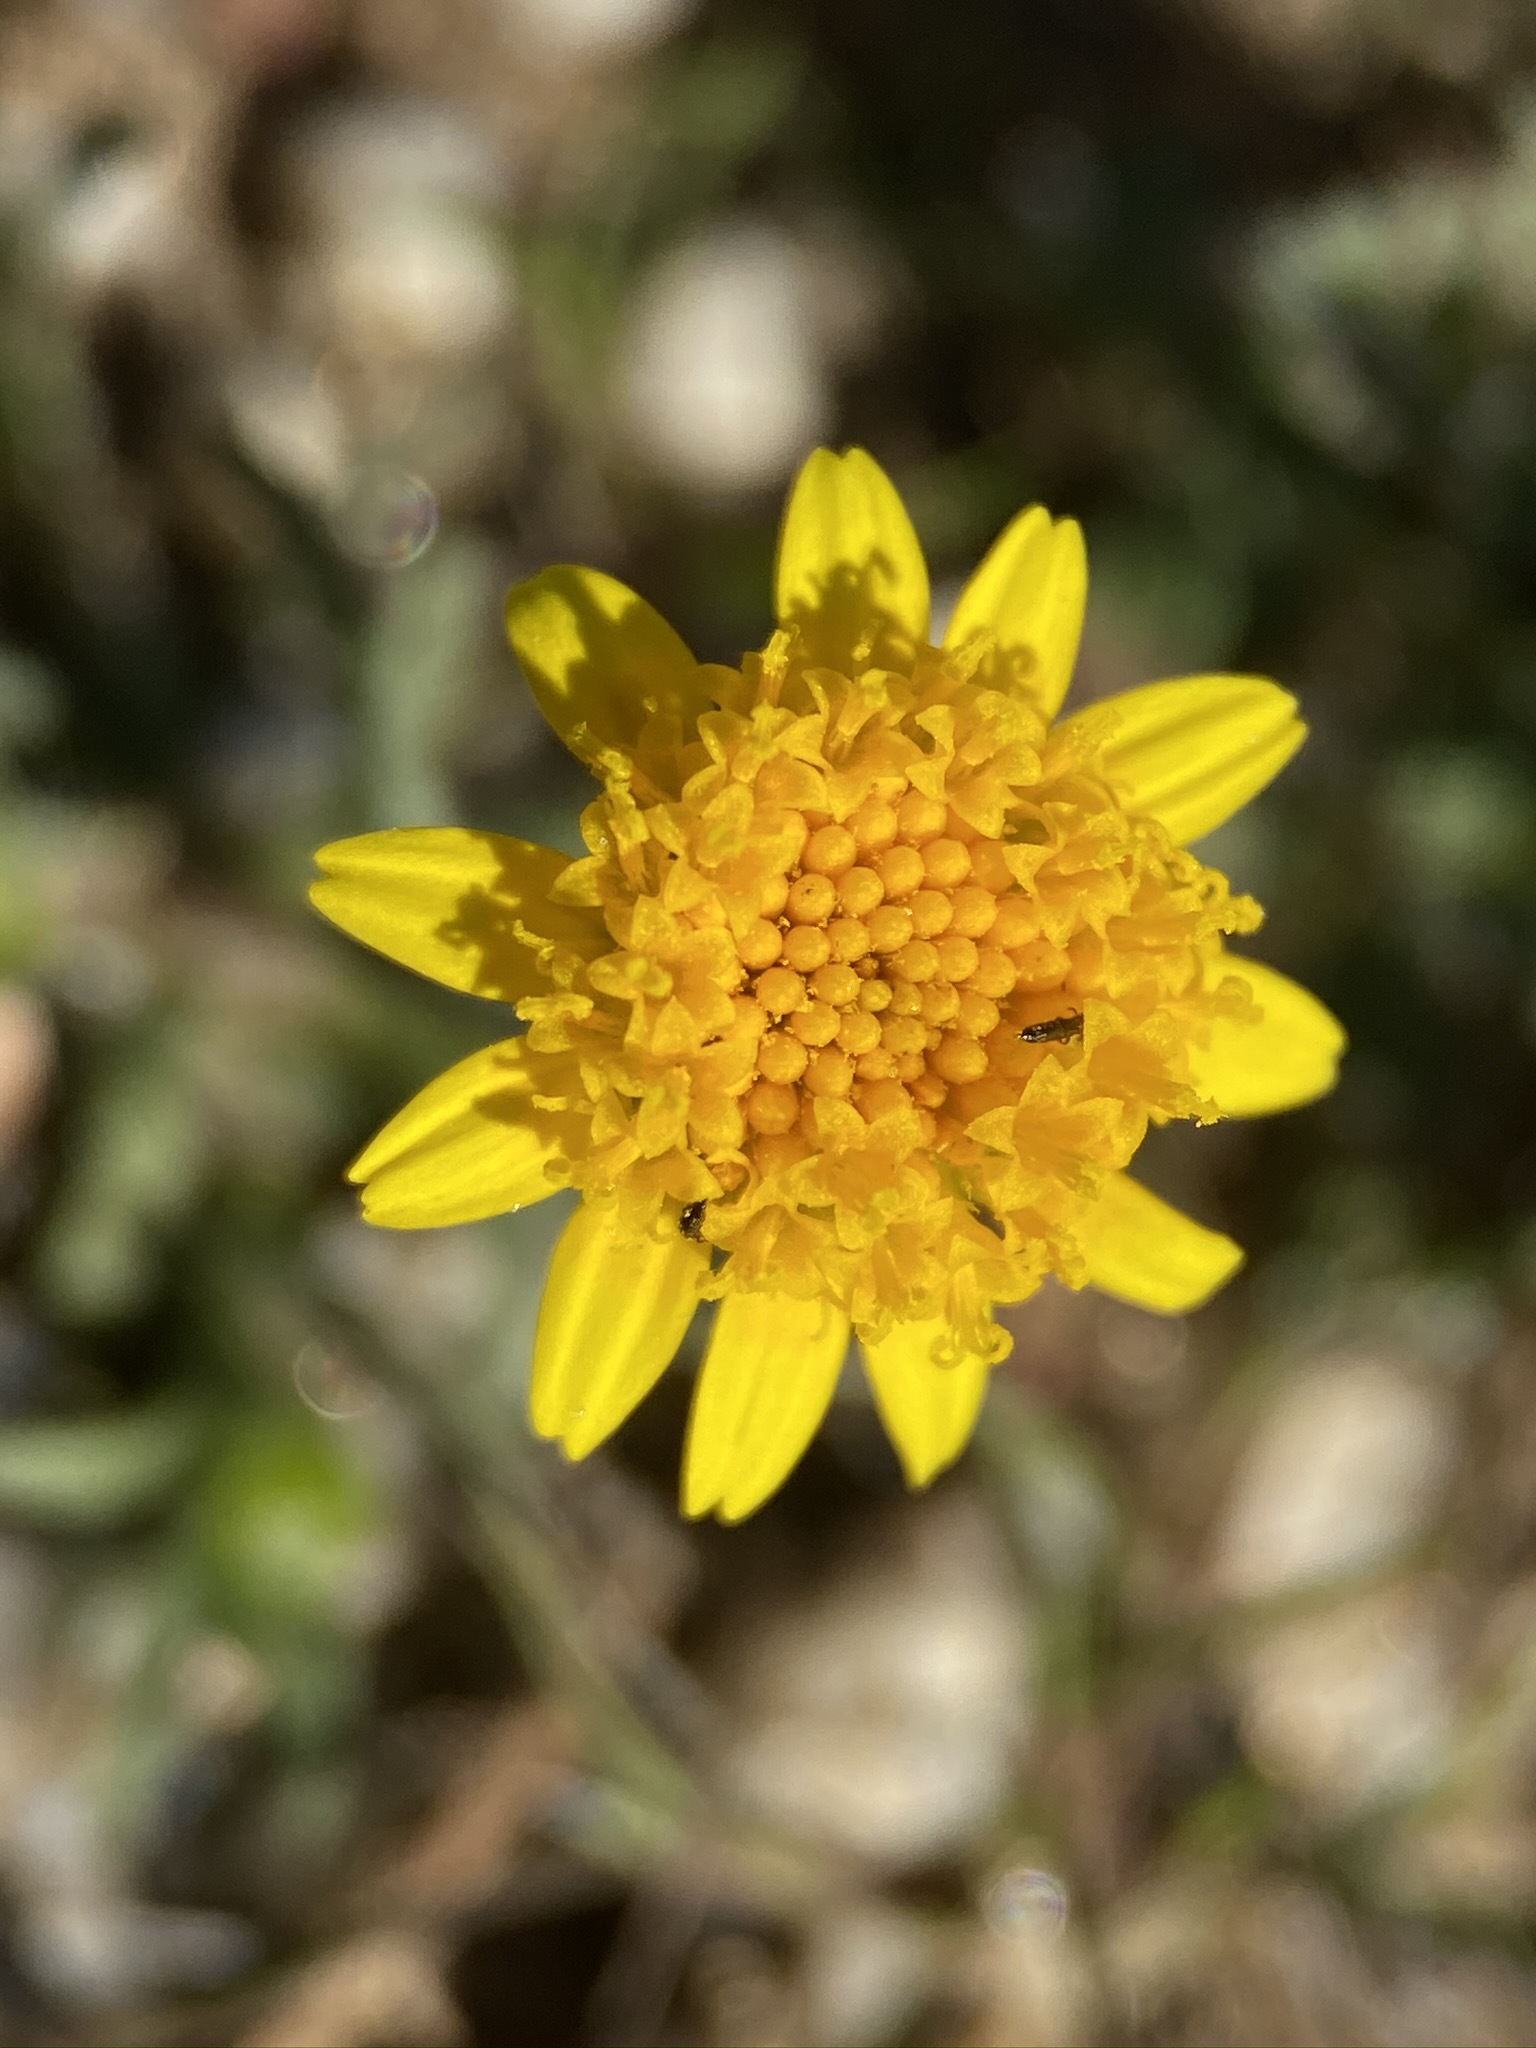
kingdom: Plantae
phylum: Tracheophyta
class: Magnoliopsida
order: Asterales
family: Asteraceae
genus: Lasthenia
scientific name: Lasthenia gracilis
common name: Common goldfields
